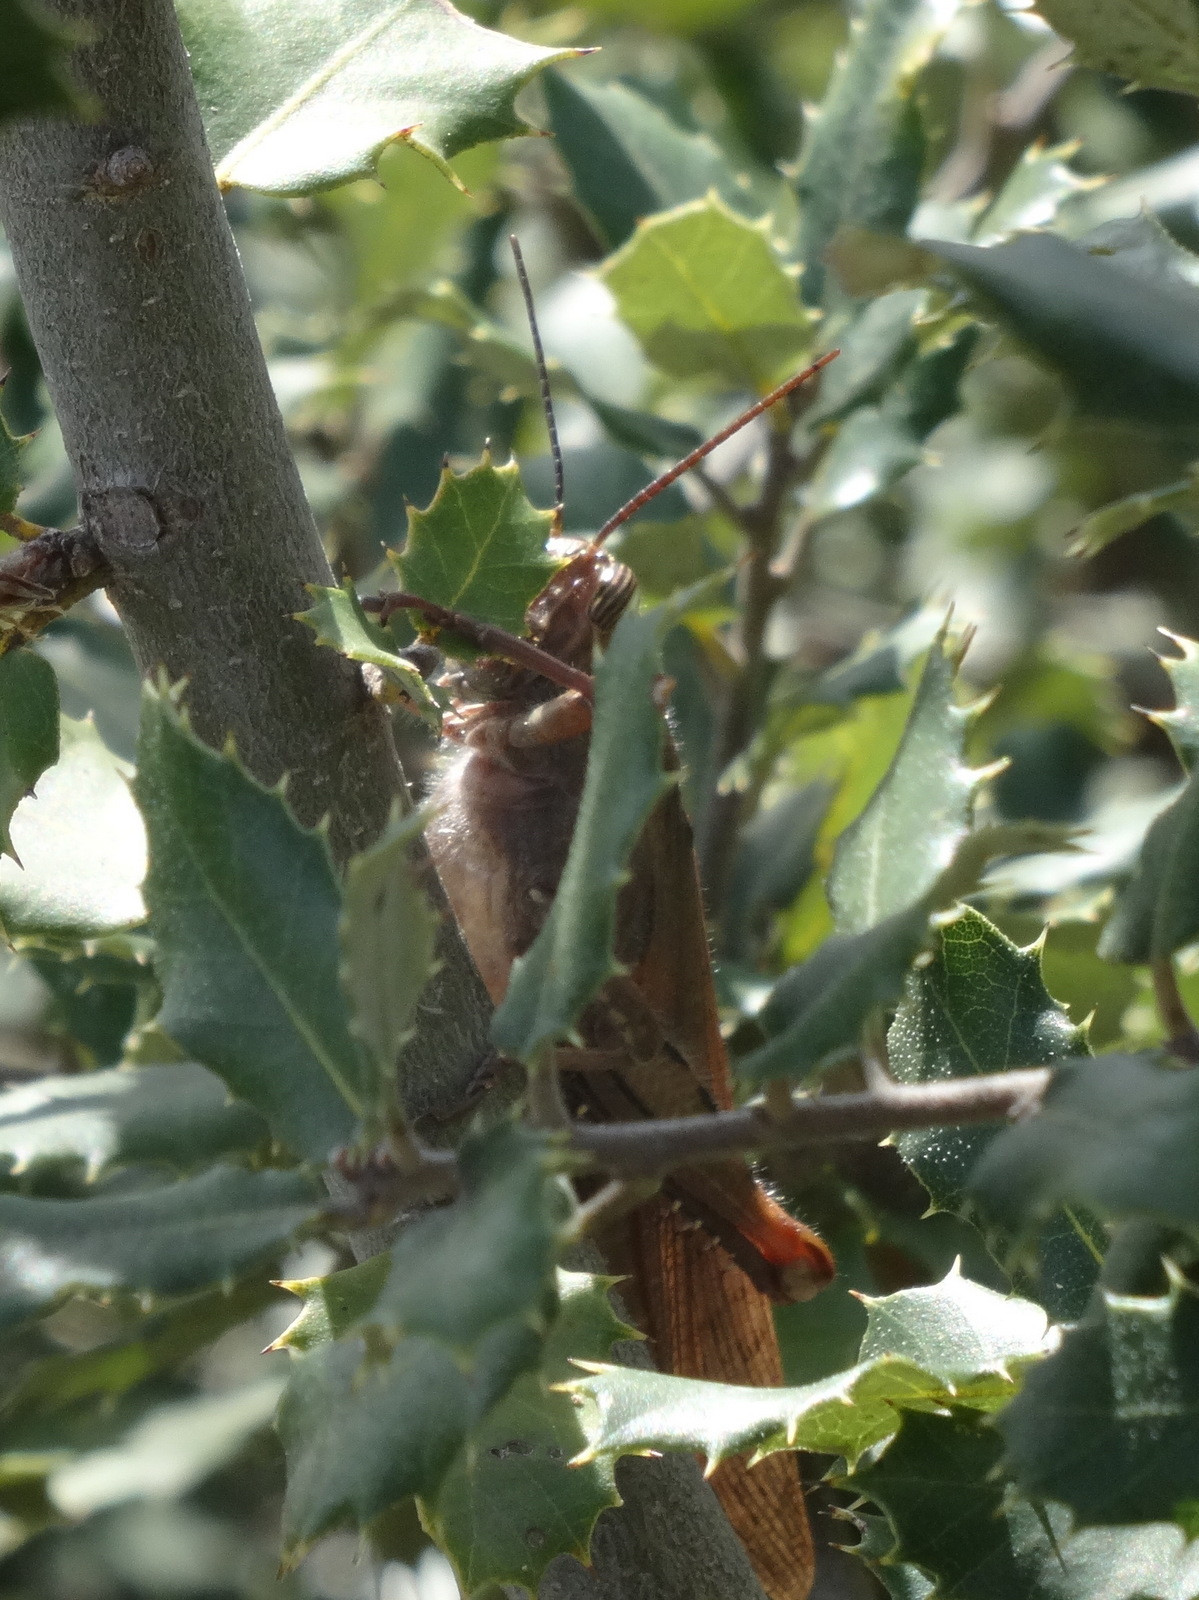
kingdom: Animalia
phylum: Arthropoda
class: Insecta
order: Orthoptera
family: Acrididae
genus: Anacridium
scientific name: Anacridium aegyptium
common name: Egyptian grasshopper
